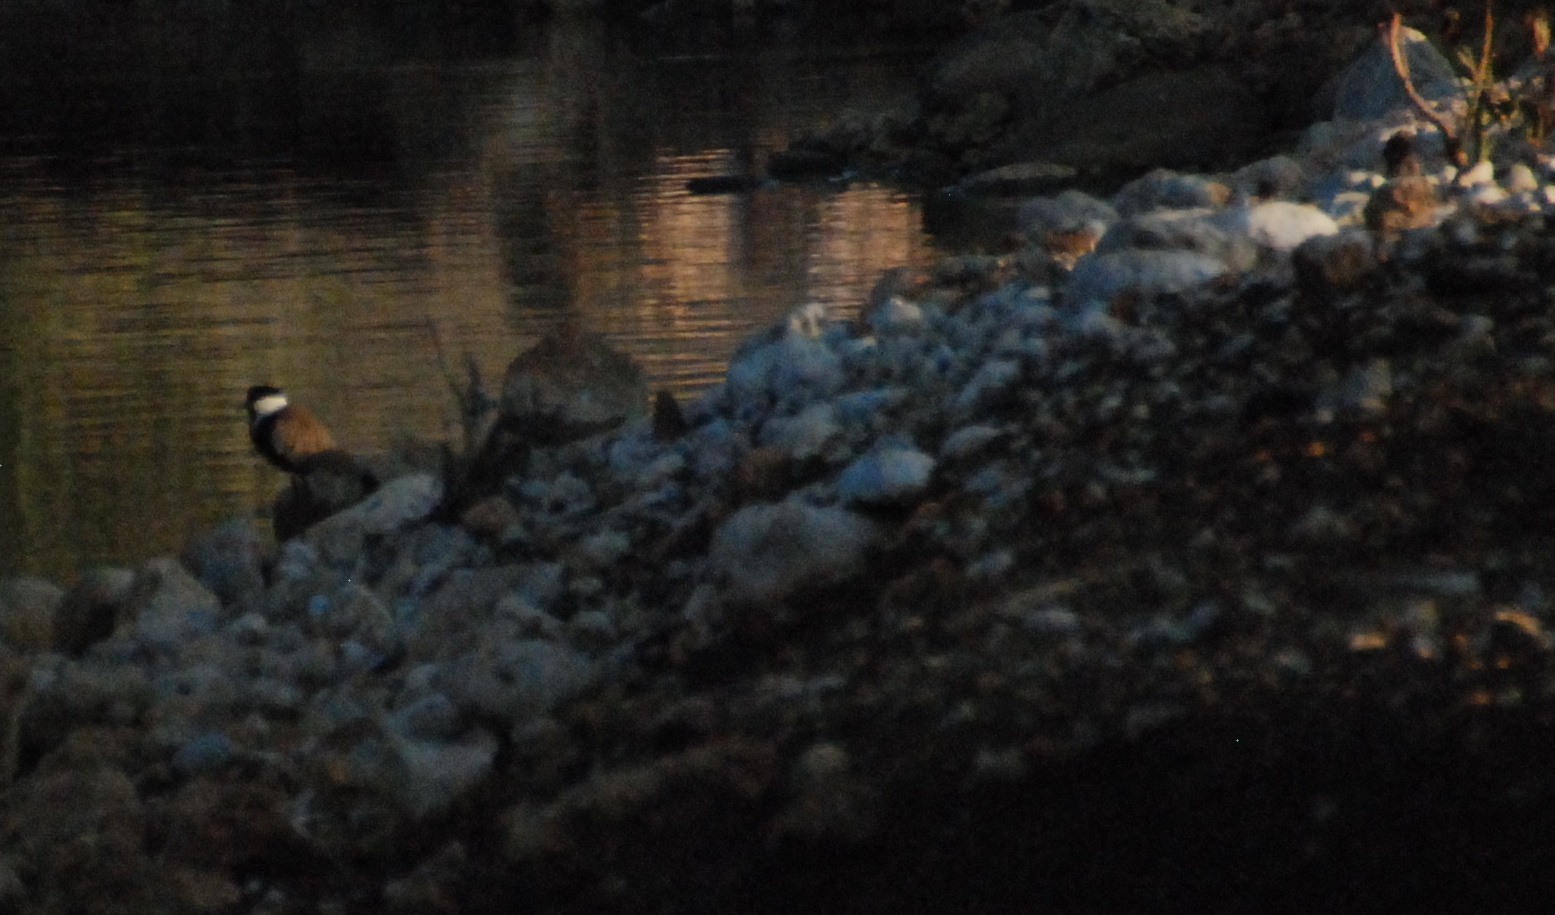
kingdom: Animalia
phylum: Chordata
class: Aves
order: Charadriiformes
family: Charadriidae
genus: Vanellus
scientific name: Vanellus spinosus
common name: Spur-winged lapwing
